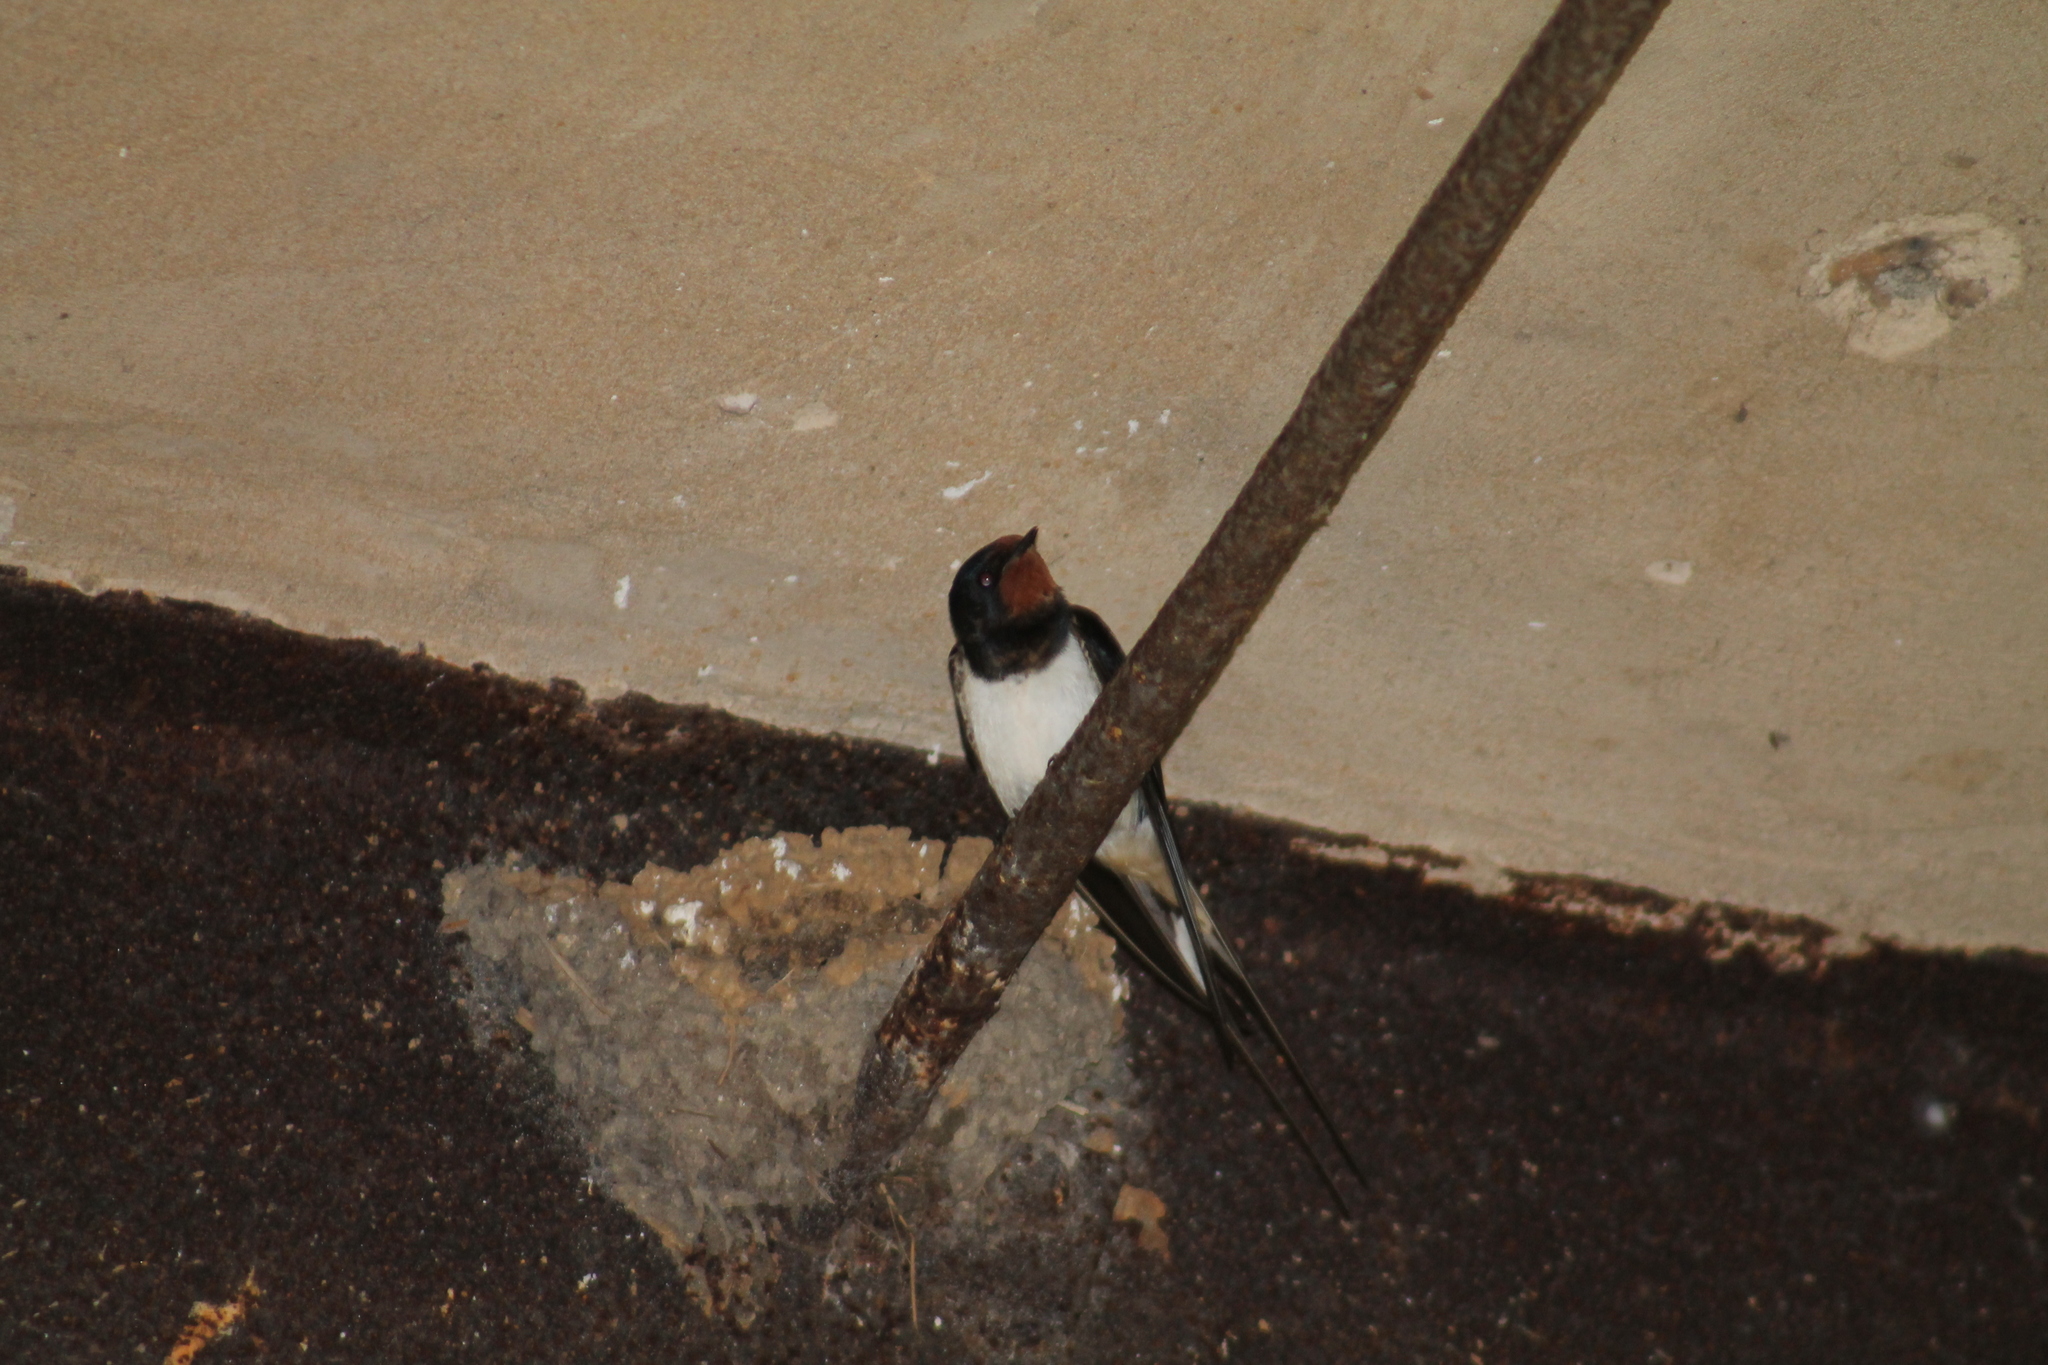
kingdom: Animalia
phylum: Chordata
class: Aves
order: Passeriformes
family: Hirundinidae
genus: Hirundo
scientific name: Hirundo rustica
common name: Barn swallow
